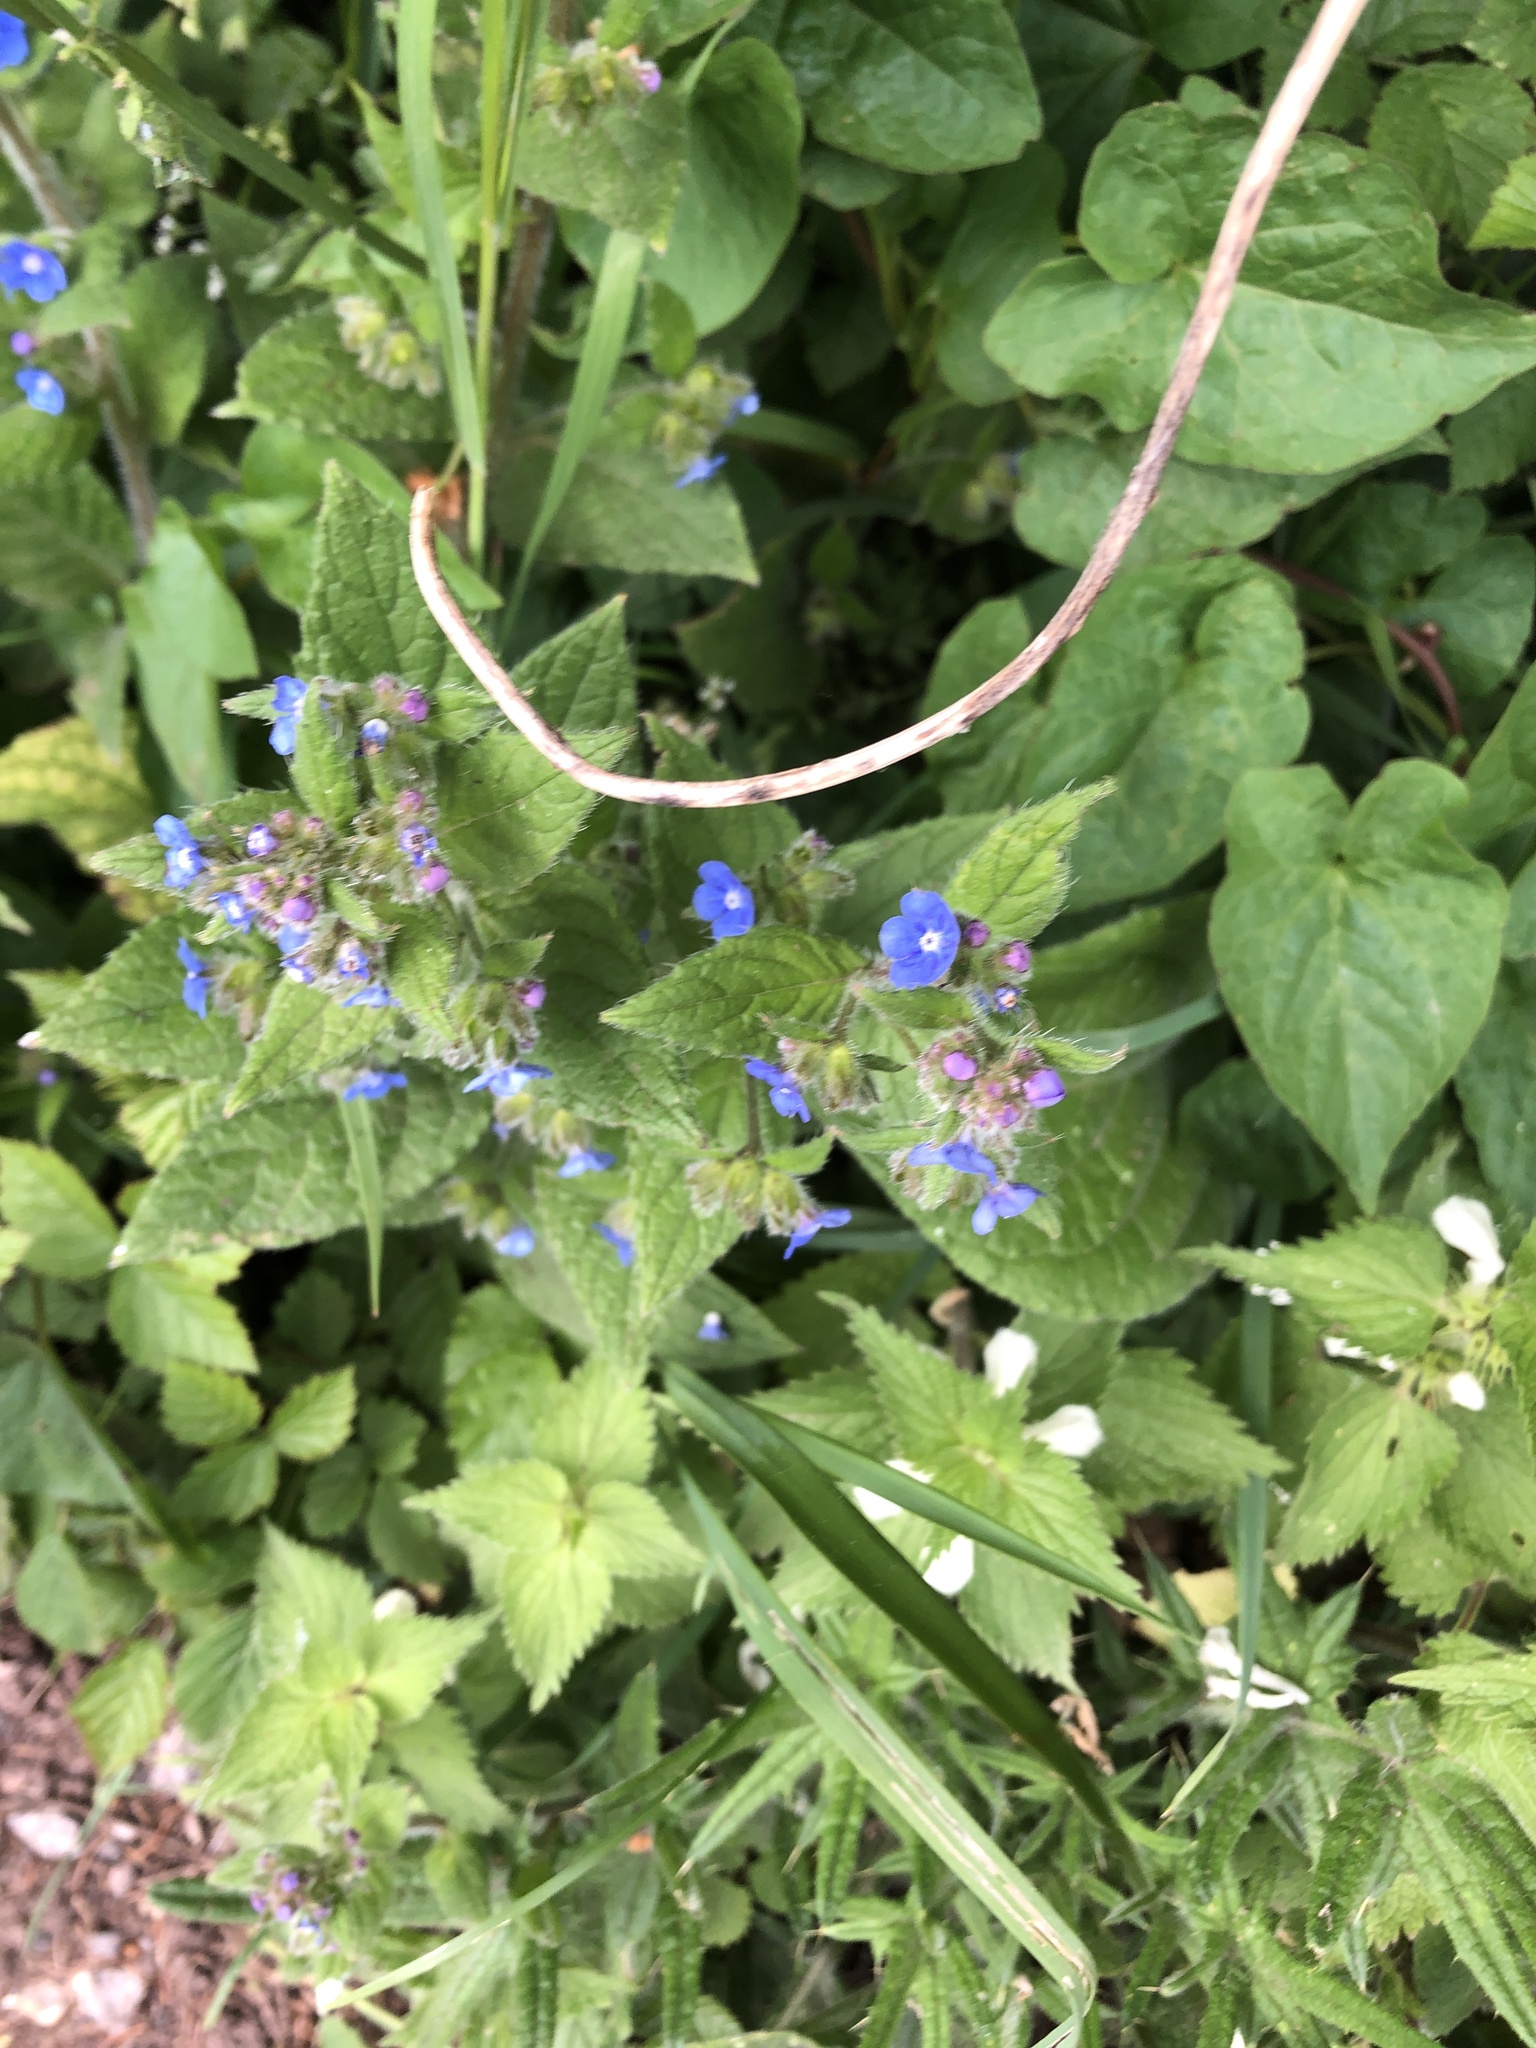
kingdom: Plantae
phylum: Tracheophyta
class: Magnoliopsida
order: Boraginales
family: Boraginaceae
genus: Pentaglottis
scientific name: Pentaglottis sempervirens
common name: Green alkanet
